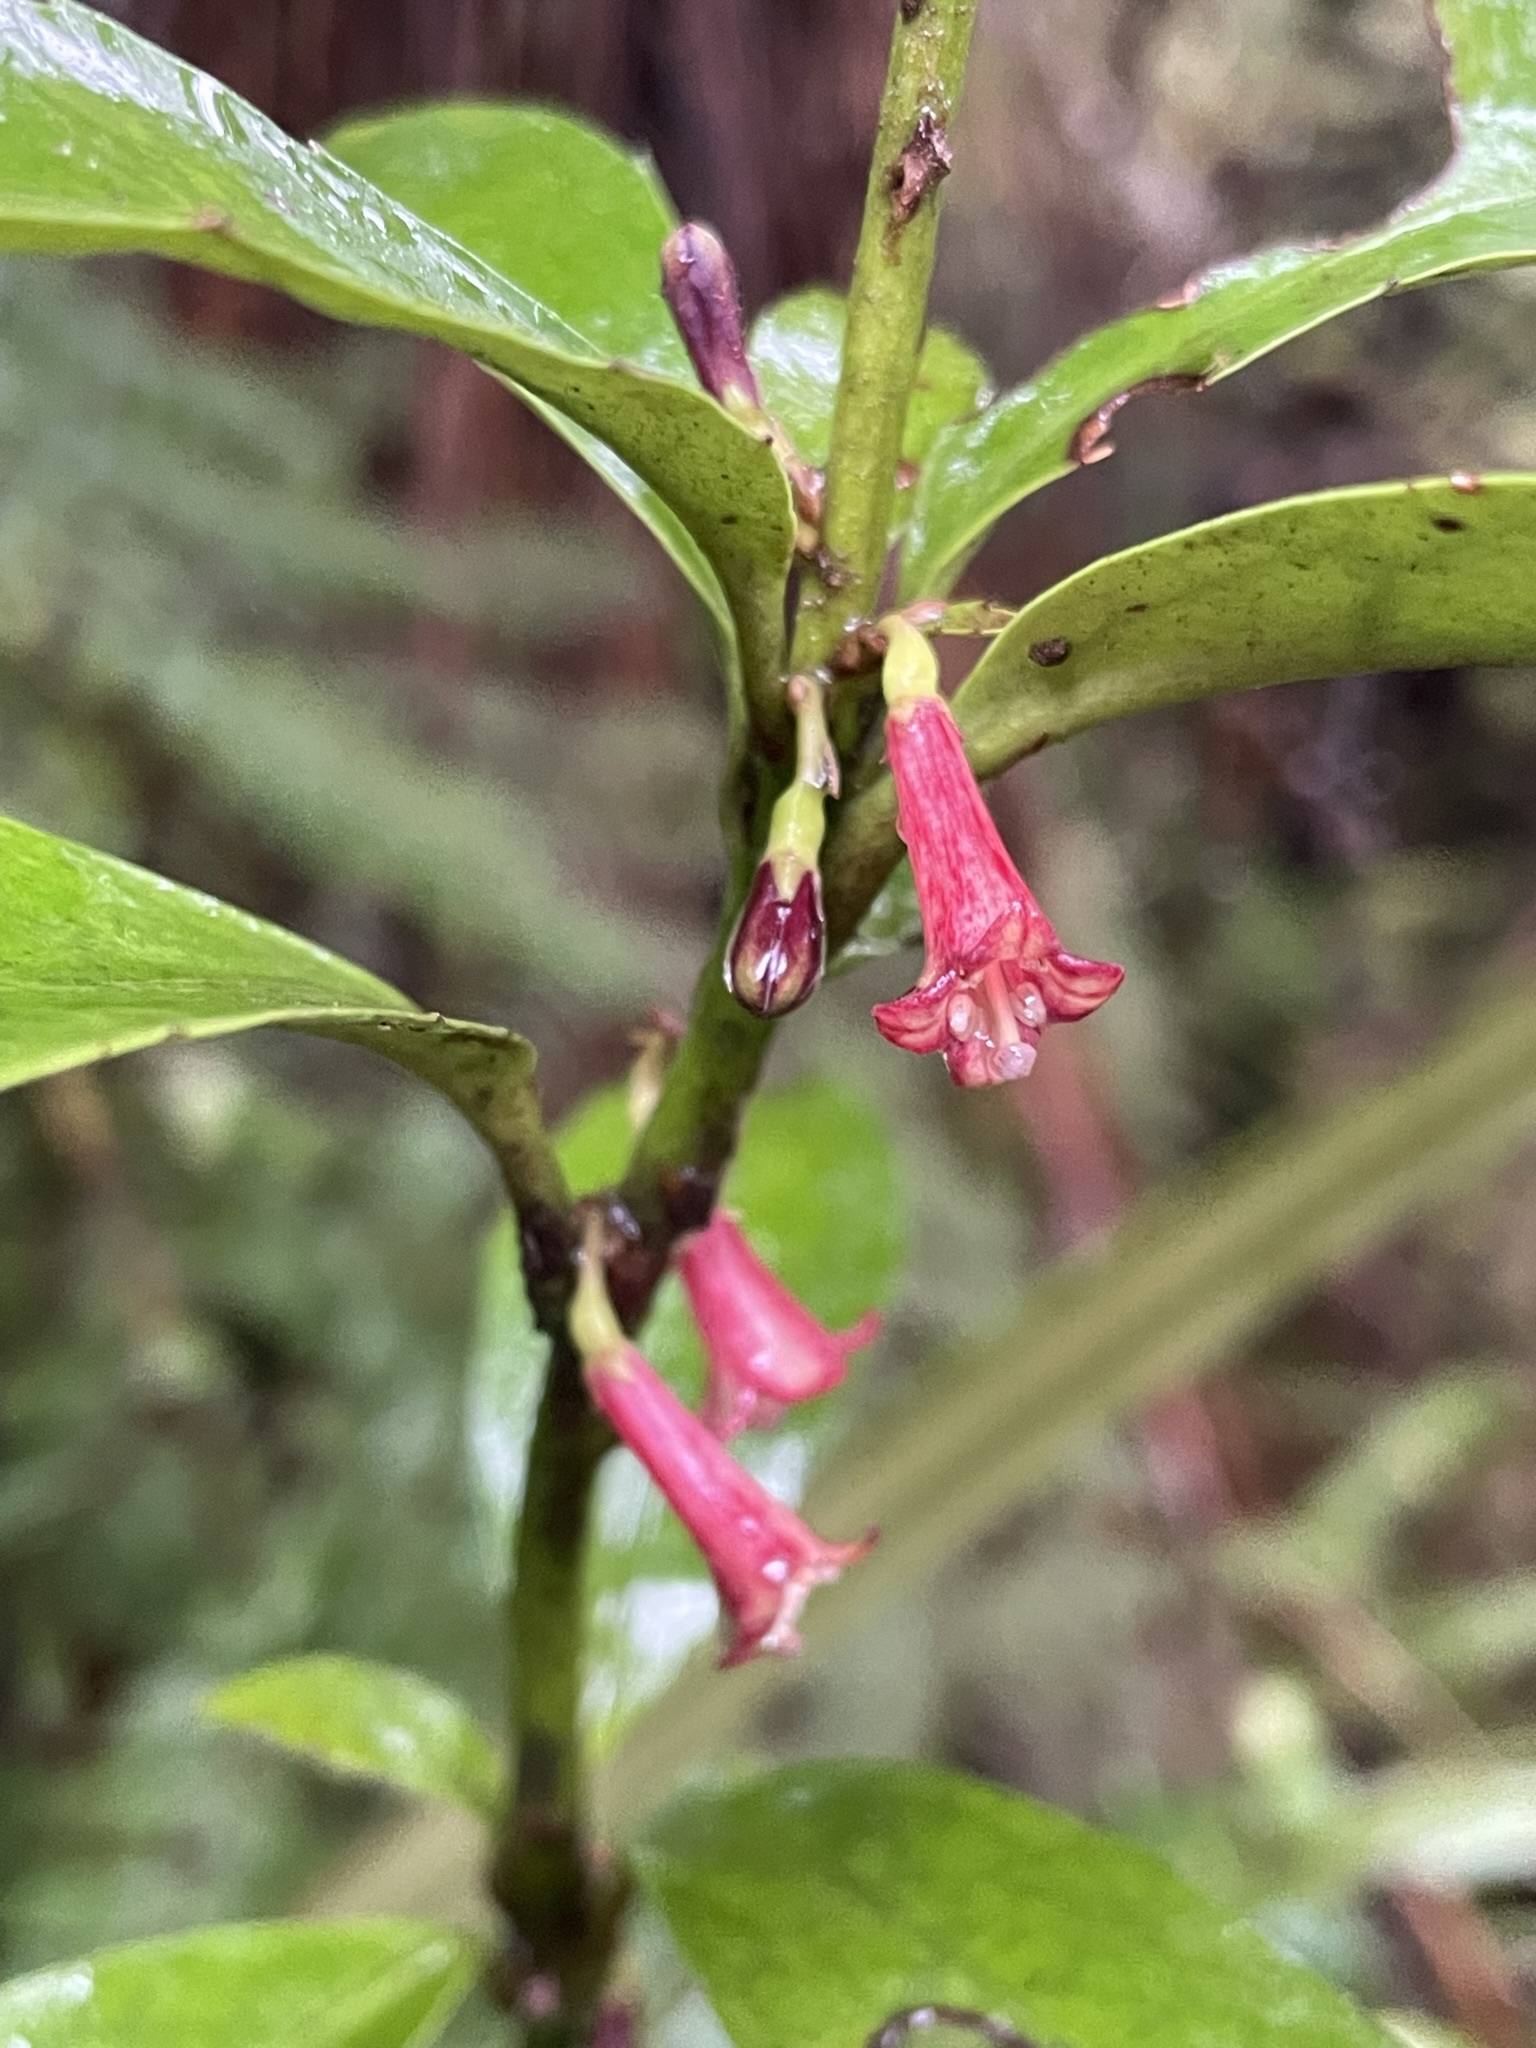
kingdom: Plantae
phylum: Tracheophyta
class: Magnoliopsida
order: Asterales
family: Alseuosmiaceae
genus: Alseuosmia
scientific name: Alseuosmia turneri
